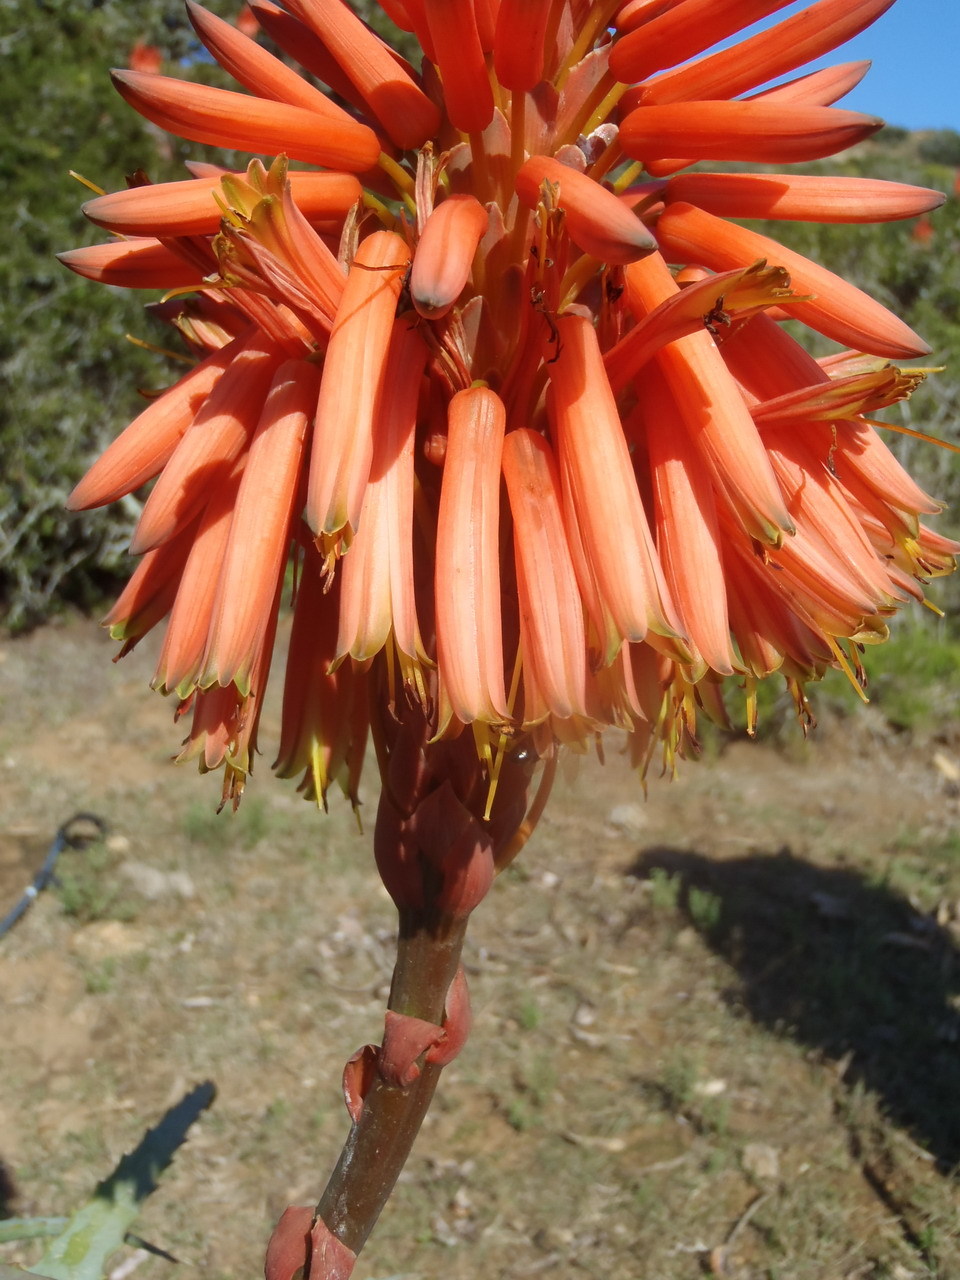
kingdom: Plantae
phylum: Tracheophyta
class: Liliopsida
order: Asparagales
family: Asphodelaceae
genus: Aloe
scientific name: Aloe arborescens
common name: Candelabra aloe
